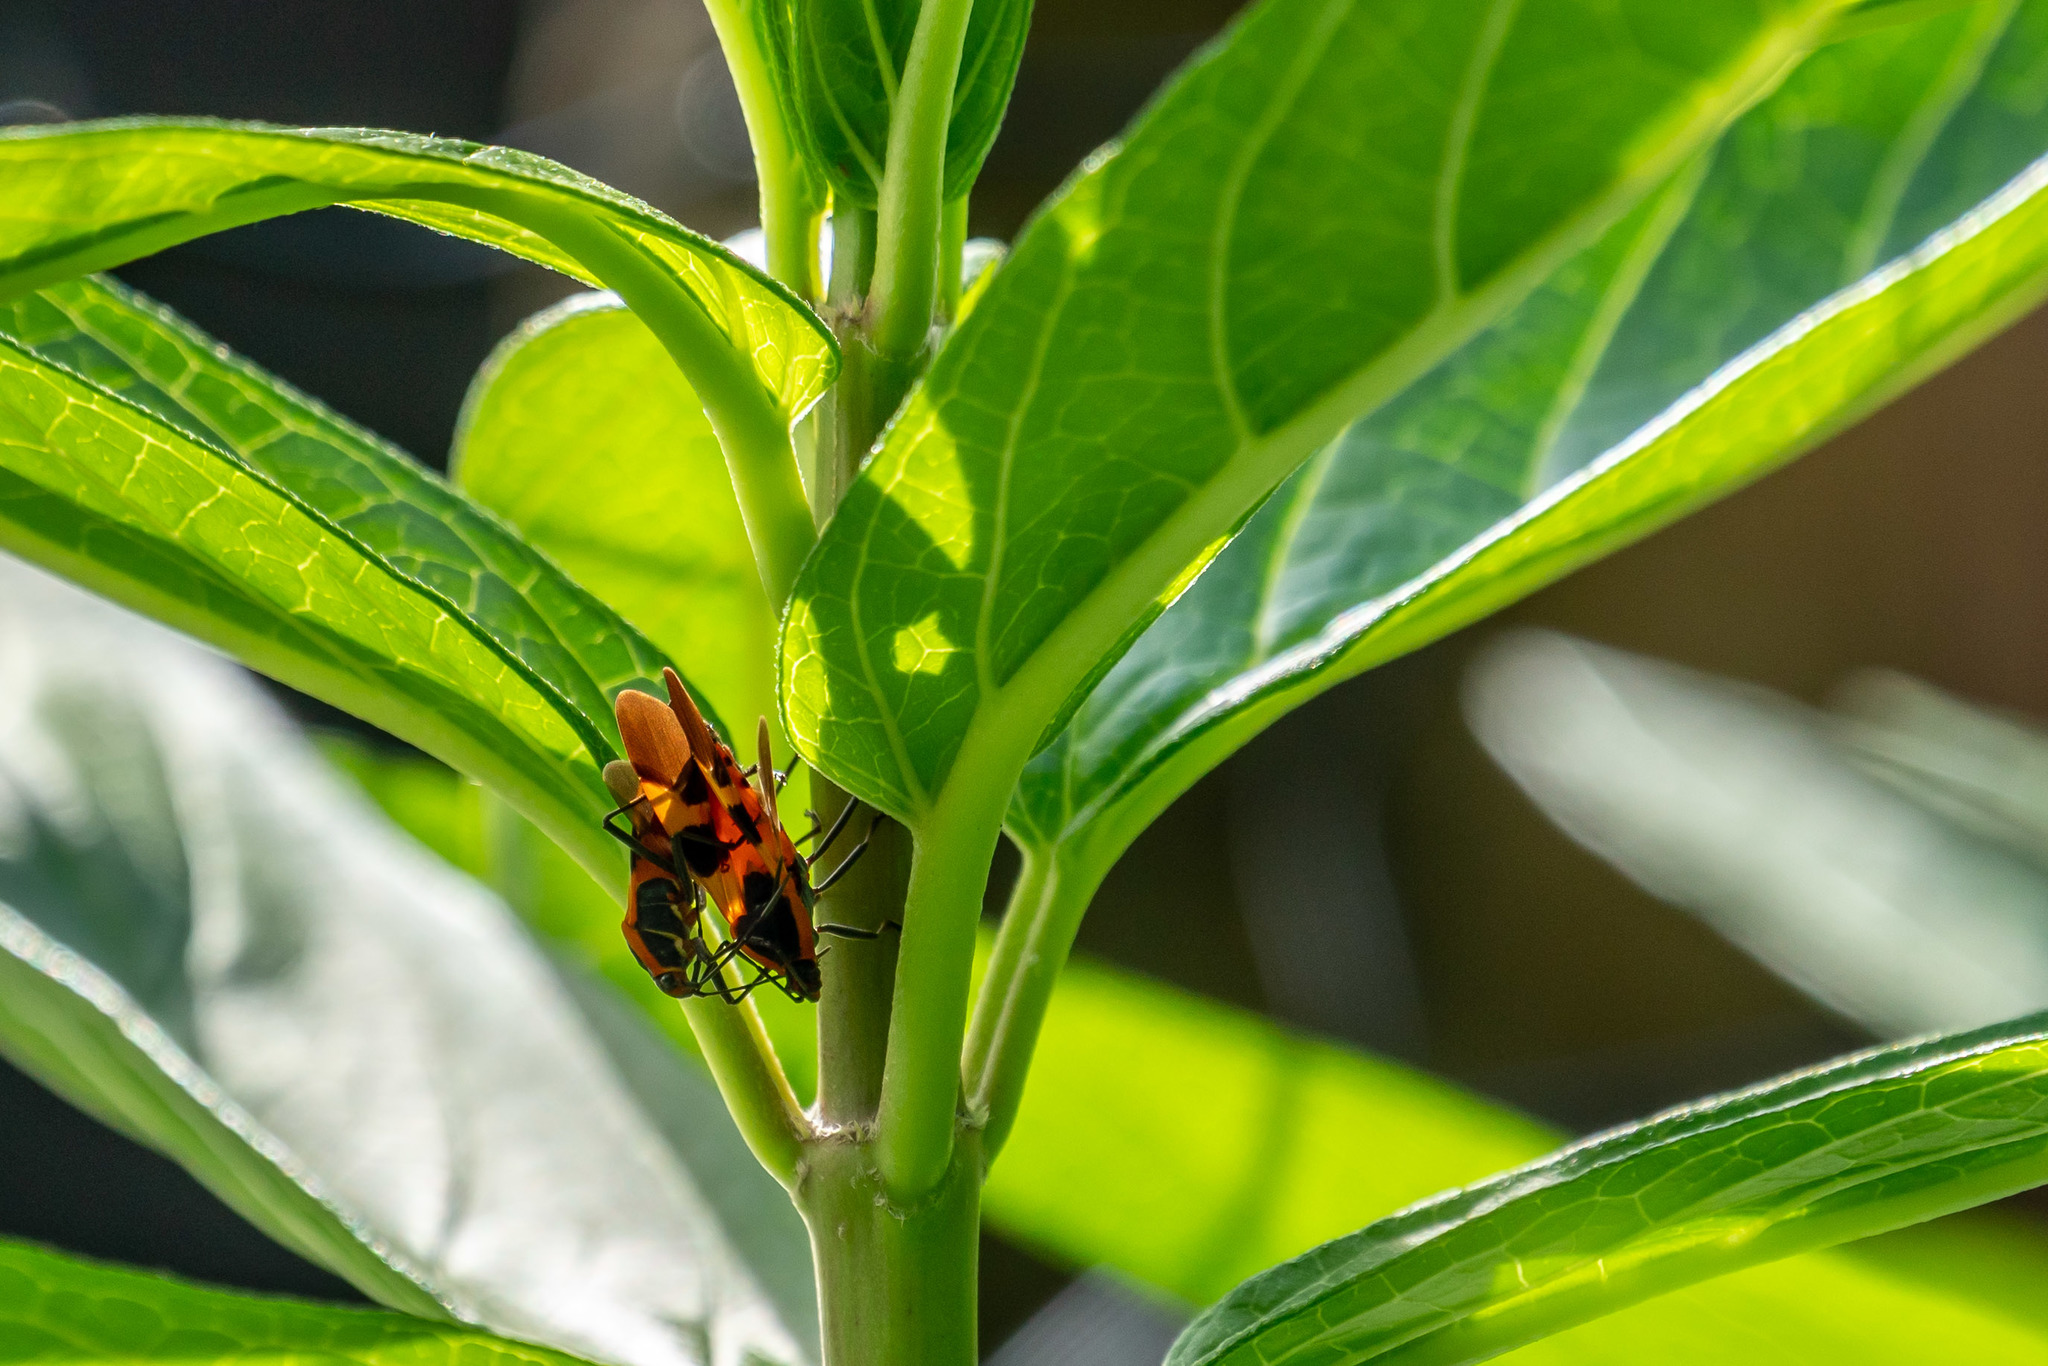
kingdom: Animalia
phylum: Arthropoda
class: Insecta
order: Hemiptera
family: Lygaeidae
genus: Oncopeltus
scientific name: Oncopeltus fasciatus
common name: Large milkweed bug
